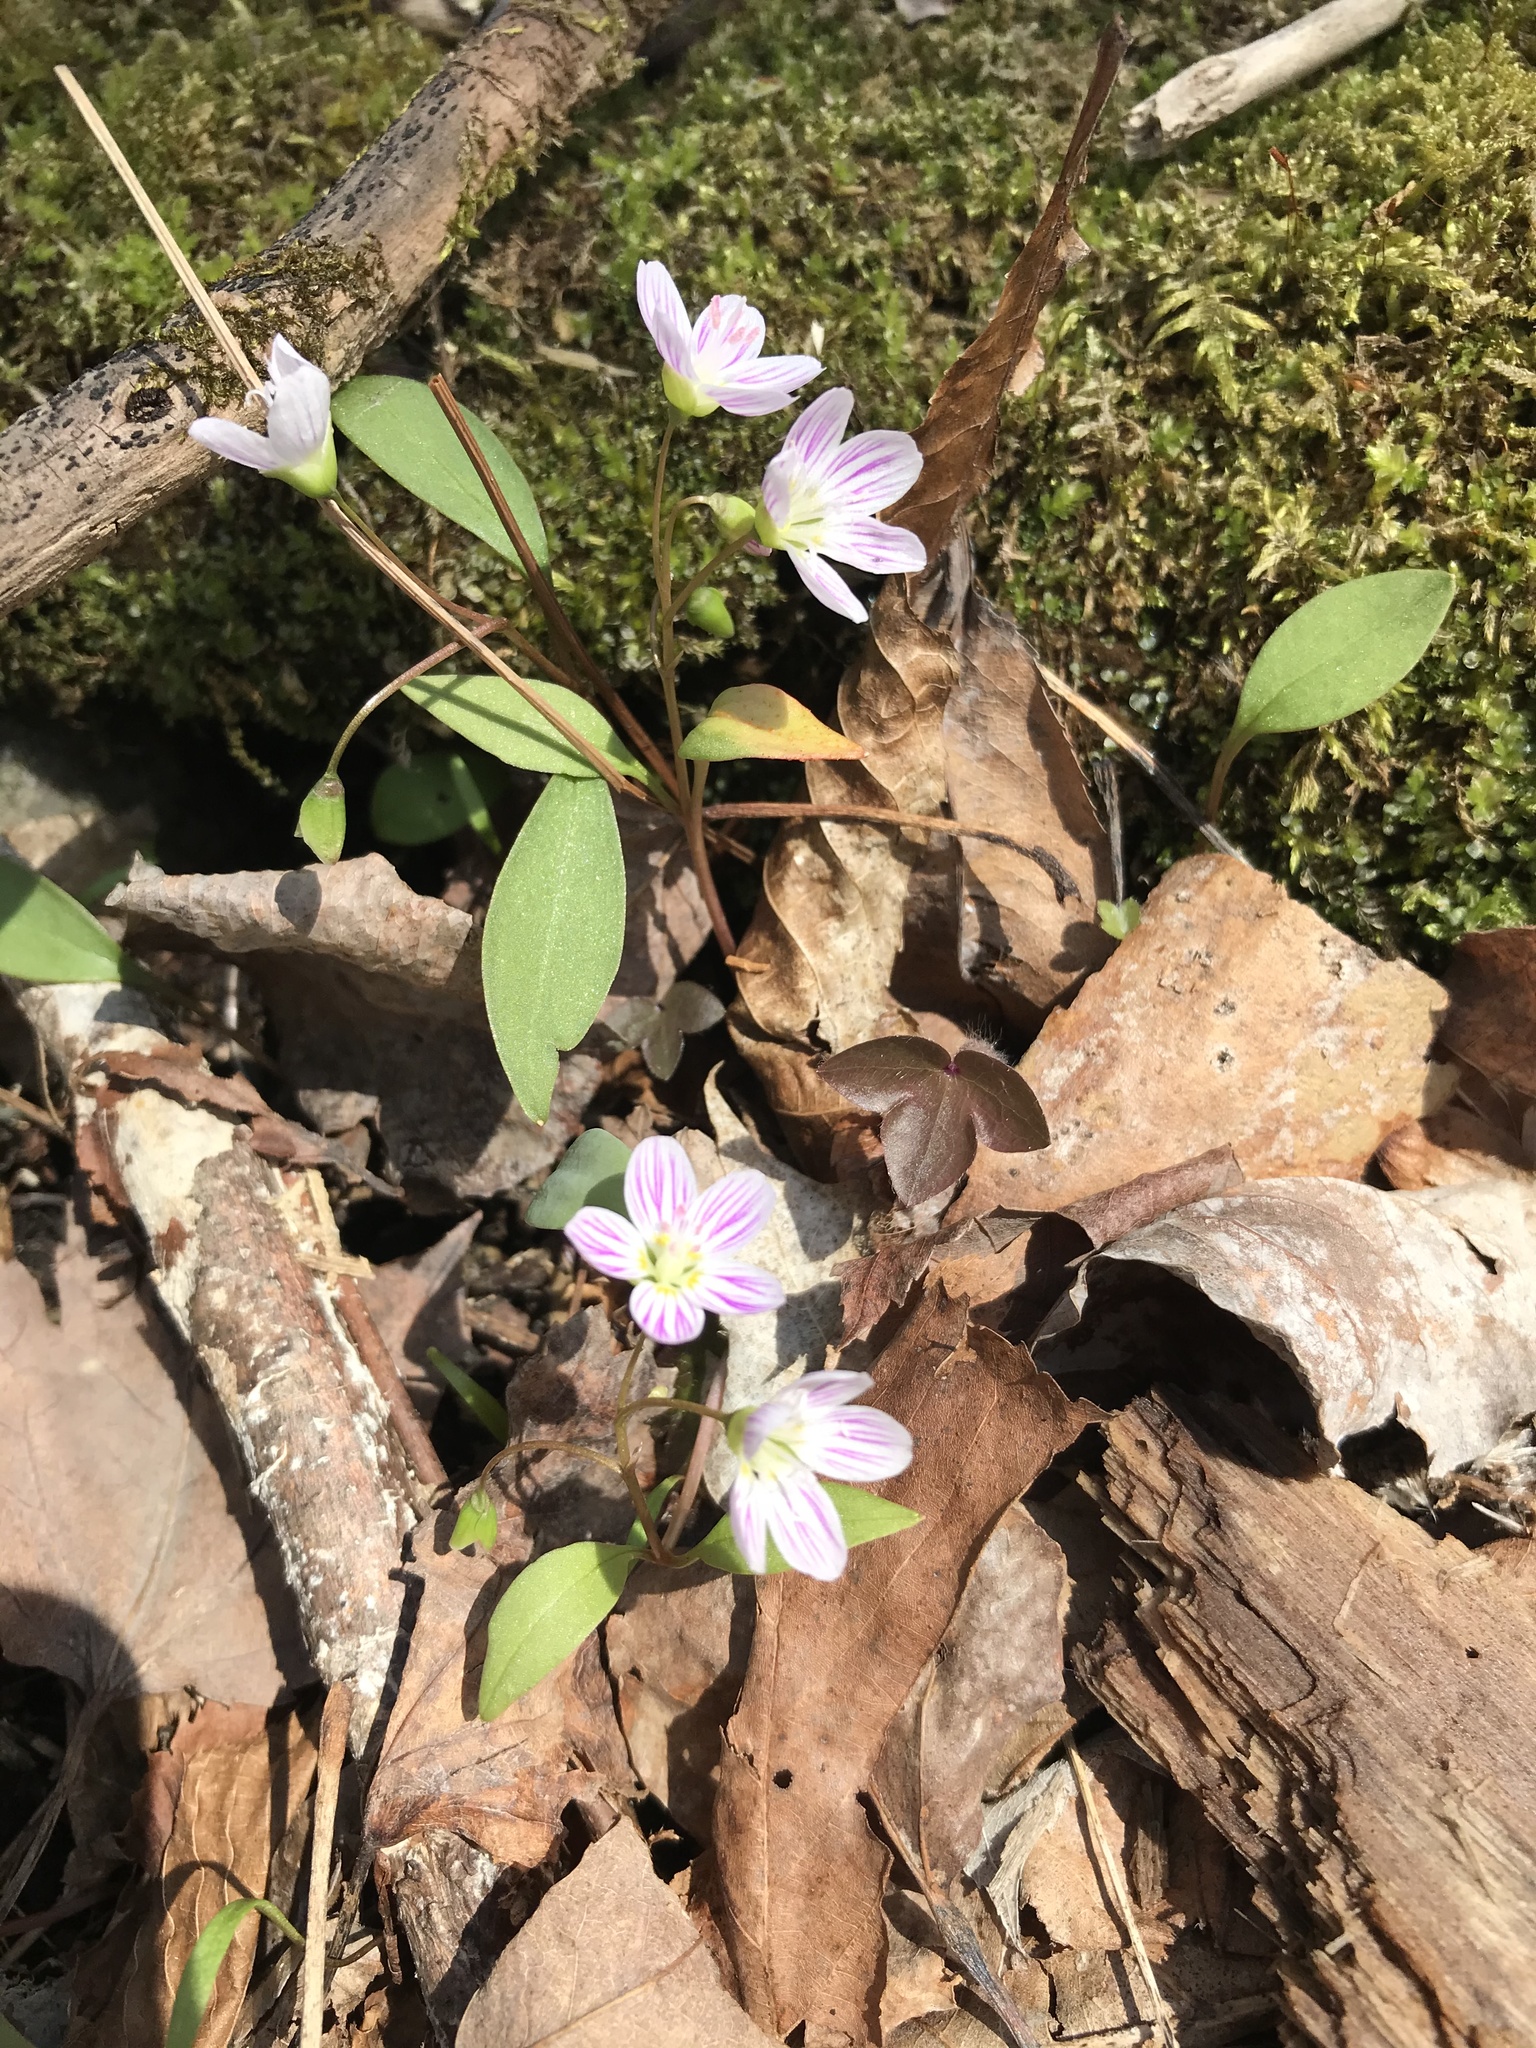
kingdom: Plantae
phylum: Tracheophyta
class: Magnoliopsida
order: Caryophyllales
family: Montiaceae
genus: Claytonia
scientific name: Claytonia caroliniana
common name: Carolina spring beauty
